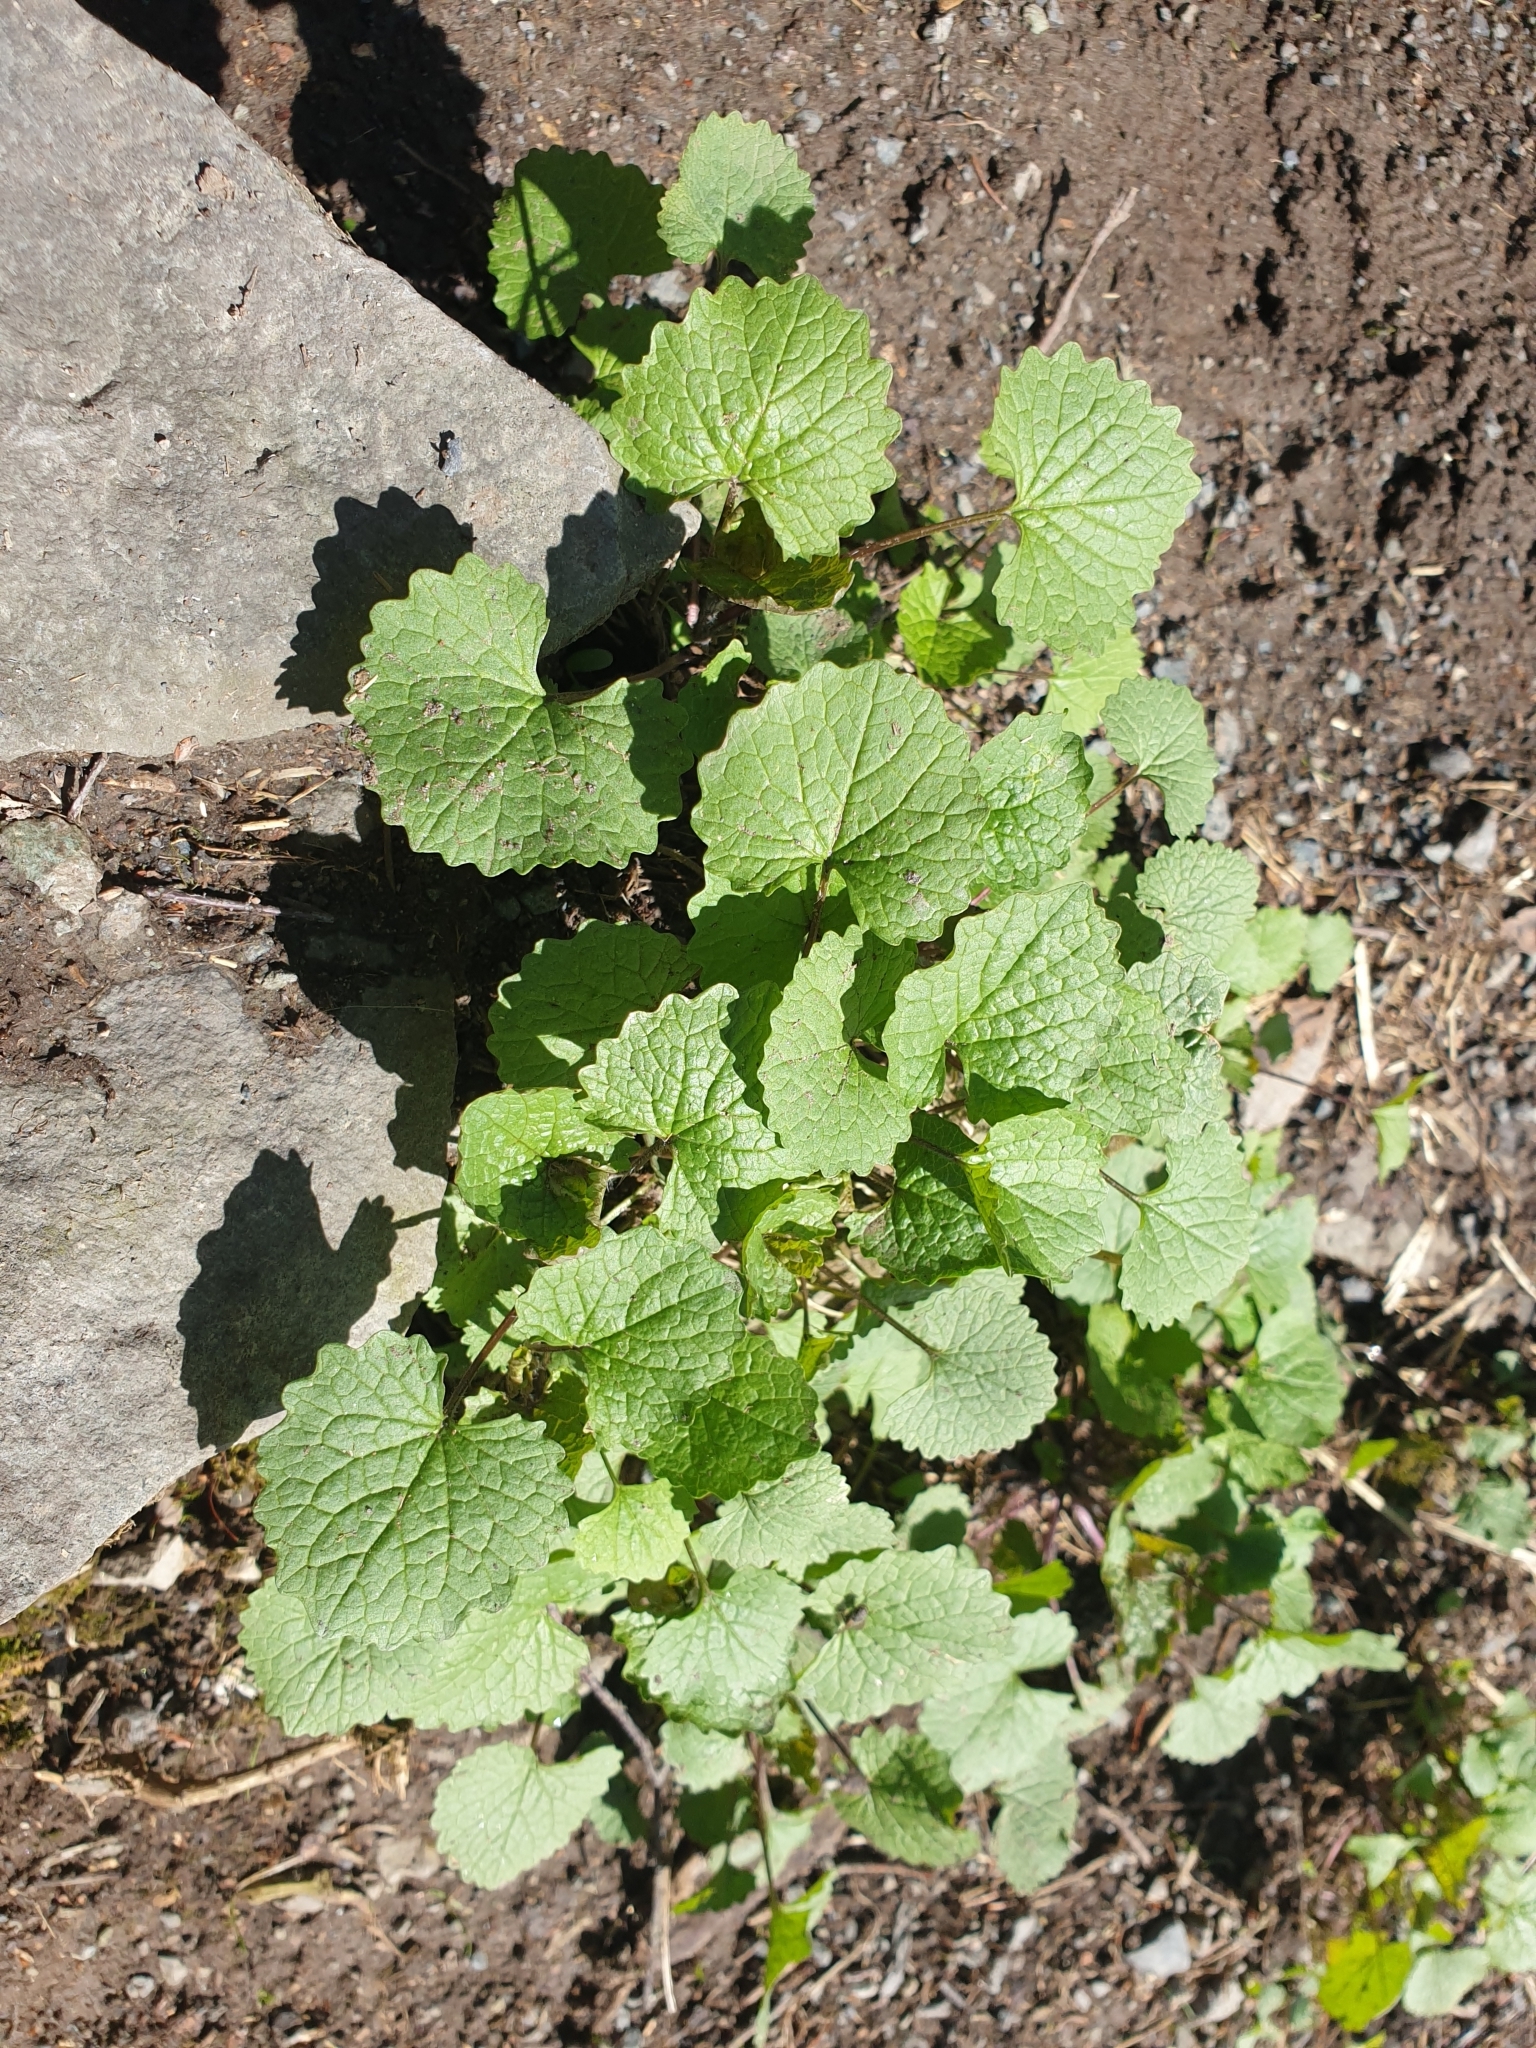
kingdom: Plantae
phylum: Tracheophyta
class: Magnoliopsida
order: Brassicales
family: Brassicaceae
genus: Alliaria
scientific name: Alliaria petiolata
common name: Garlic mustard
